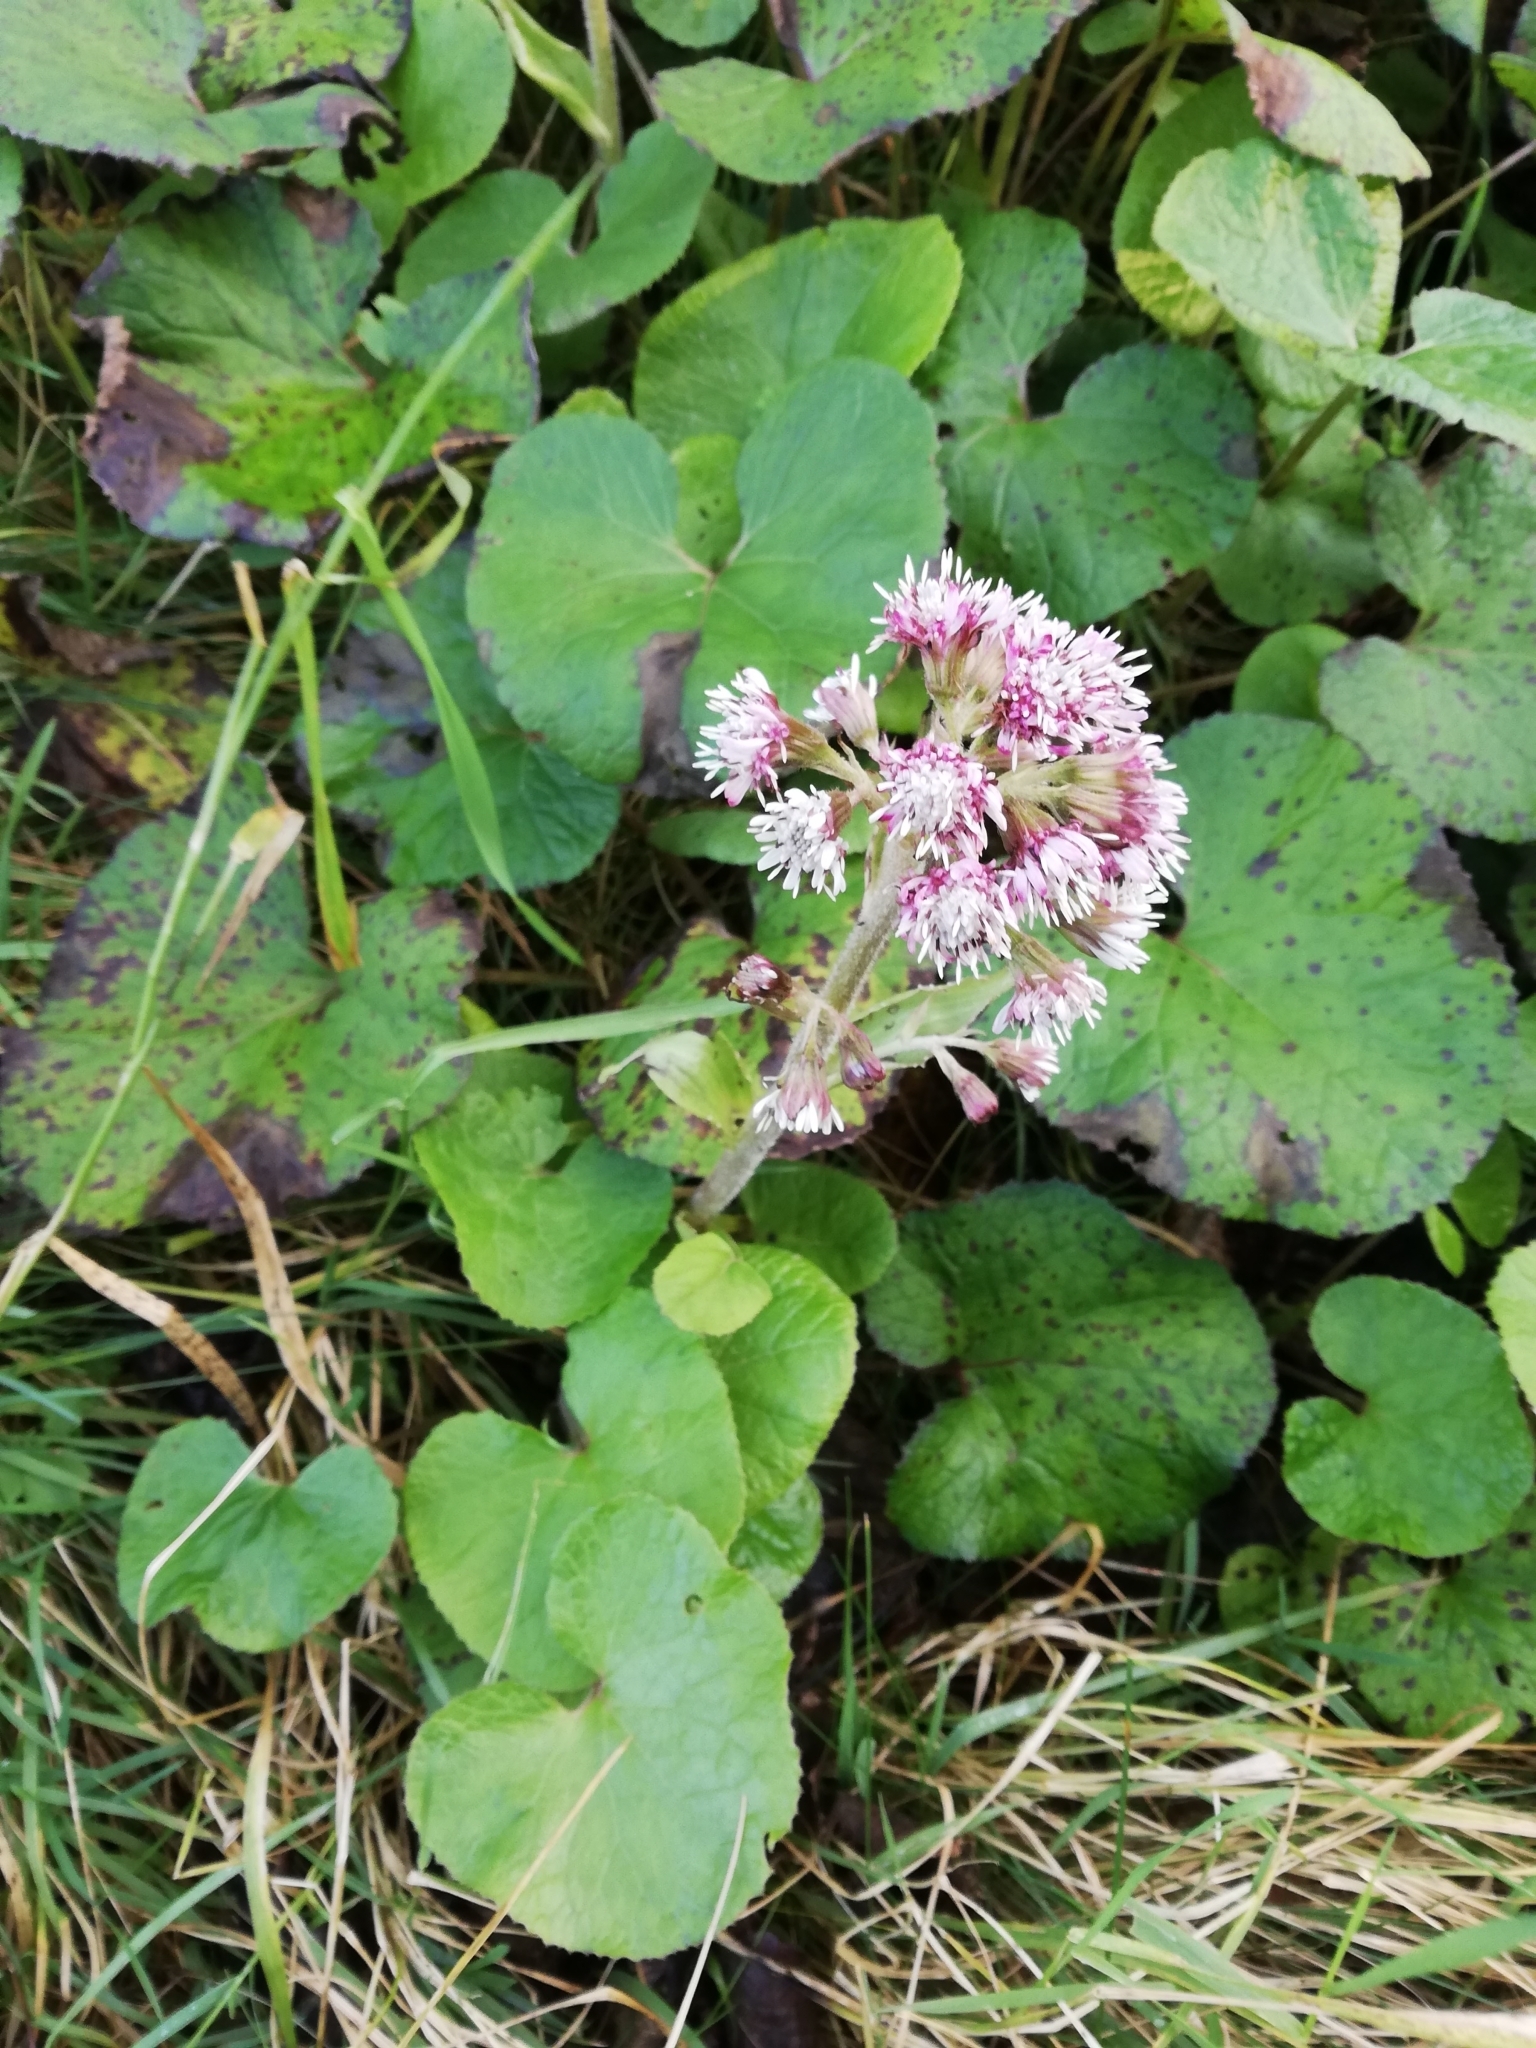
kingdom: Plantae
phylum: Tracheophyta
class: Magnoliopsida
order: Asterales
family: Asteraceae
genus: Petasites
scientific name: Petasites pyrenaicus
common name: Winter heliotrope
